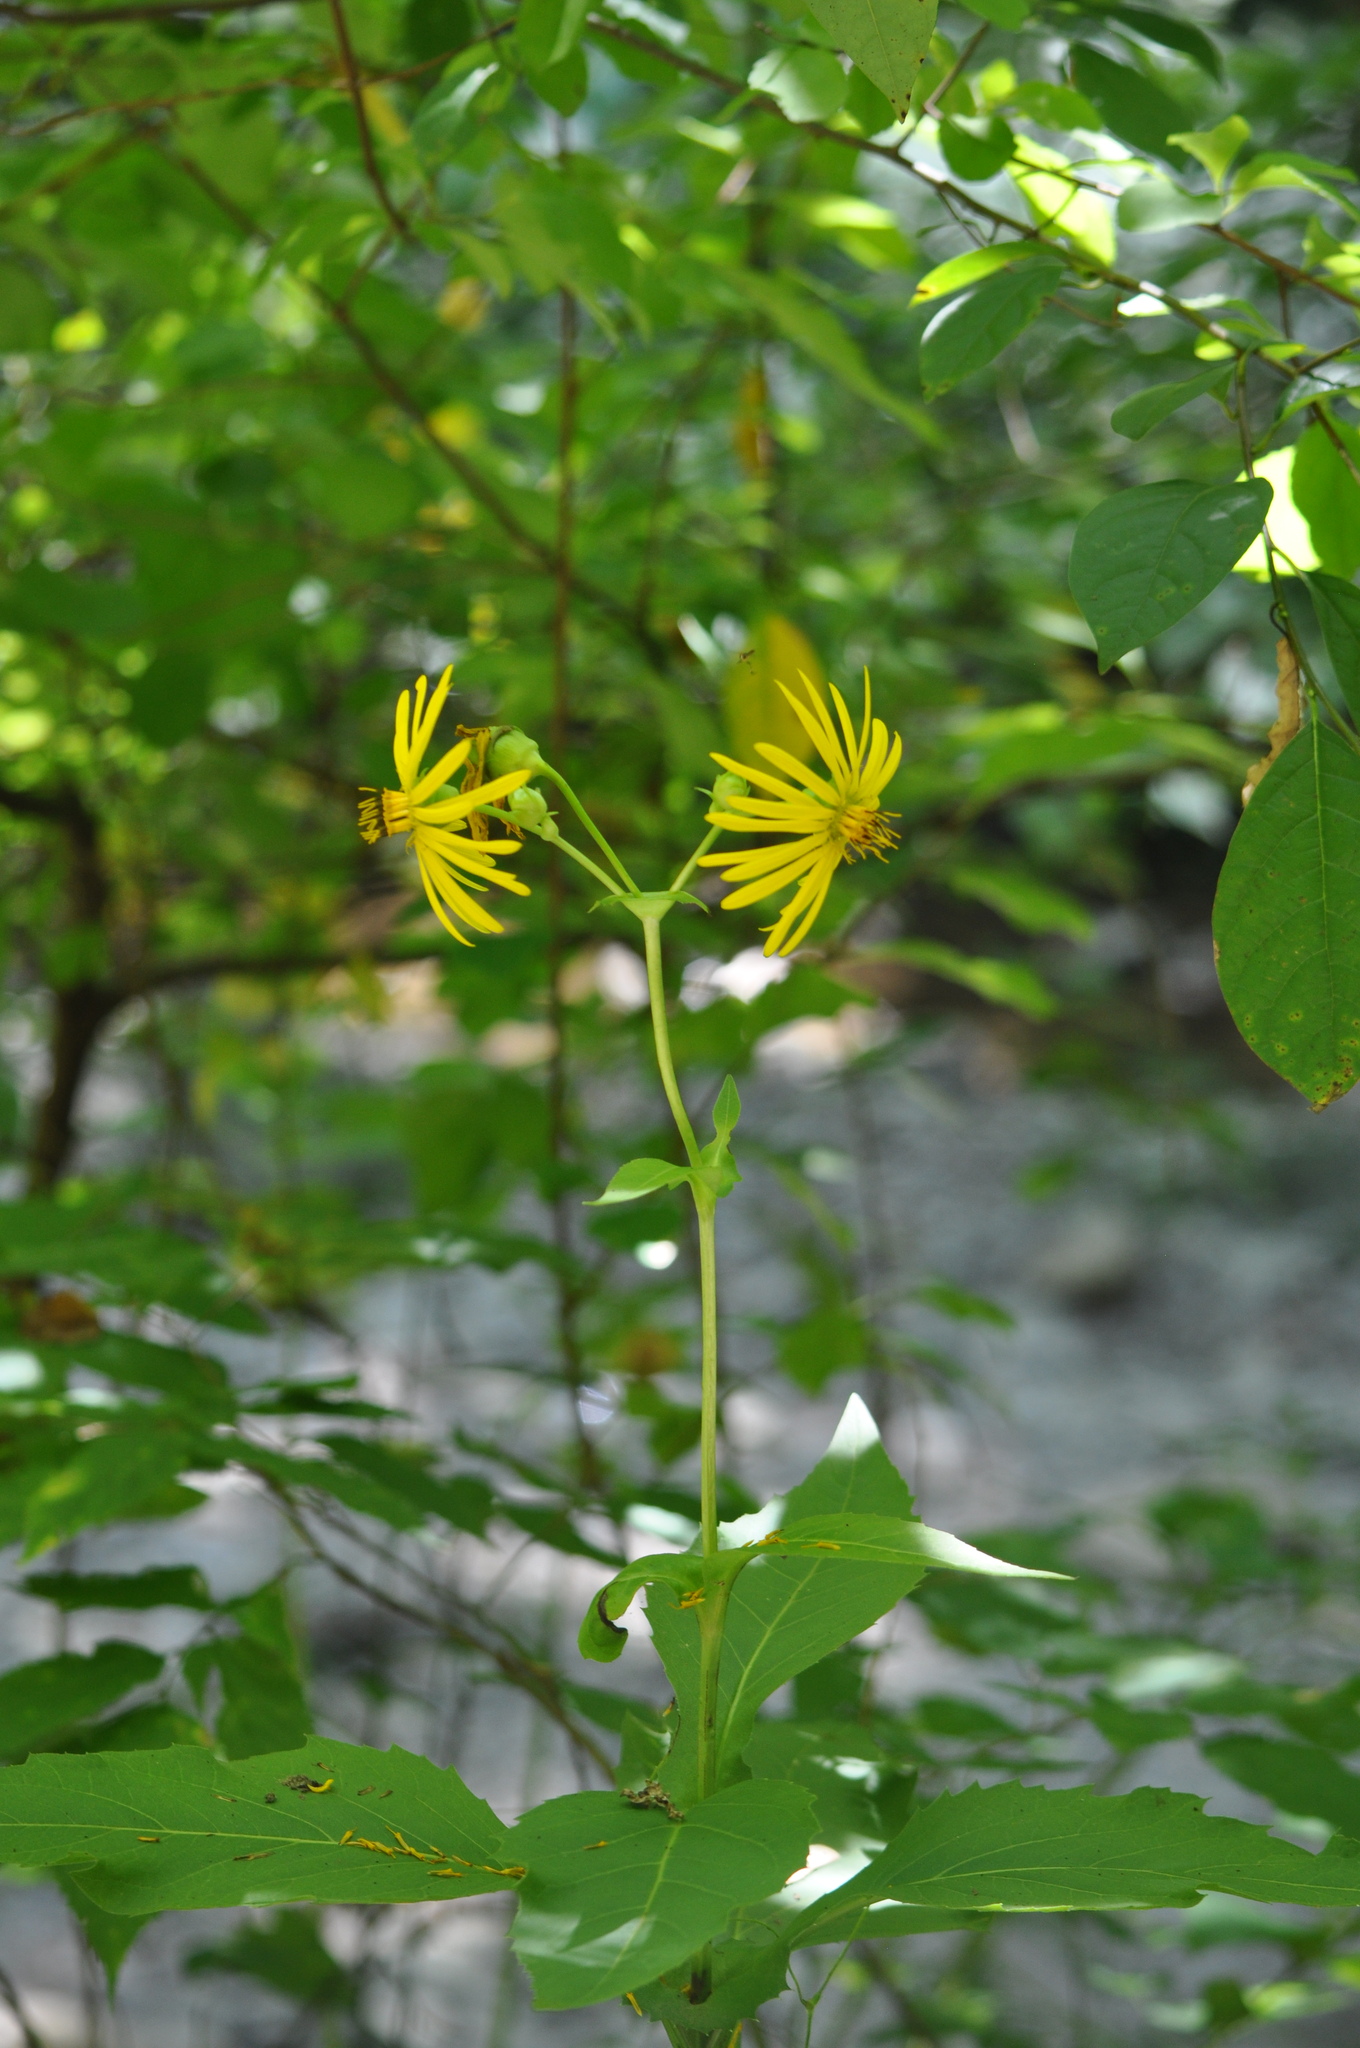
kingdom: Plantae
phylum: Tracheophyta
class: Magnoliopsida
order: Asterales
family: Asteraceae
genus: Silphium
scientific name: Silphium perfoliatum
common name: Cup-plant
